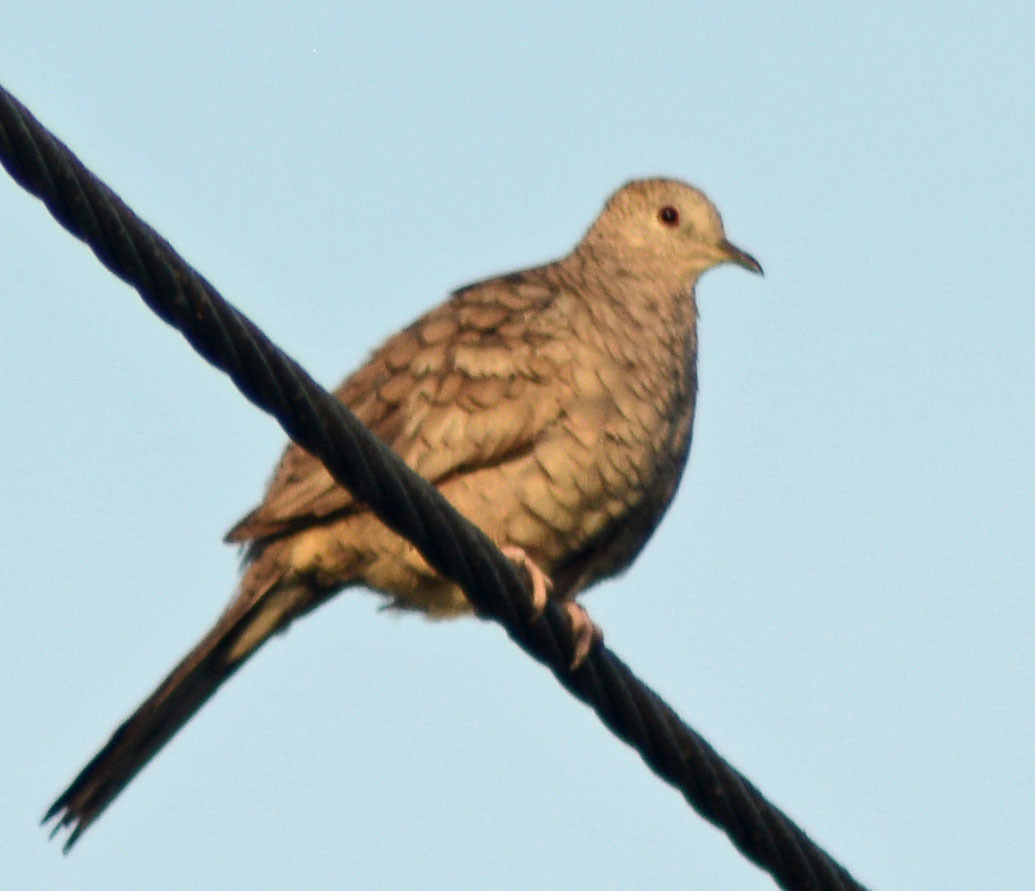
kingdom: Animalia
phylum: Chordata
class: Aves
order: Columbiformes
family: Columbidae
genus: Columbina
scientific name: Columbina inca
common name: Inca dove
